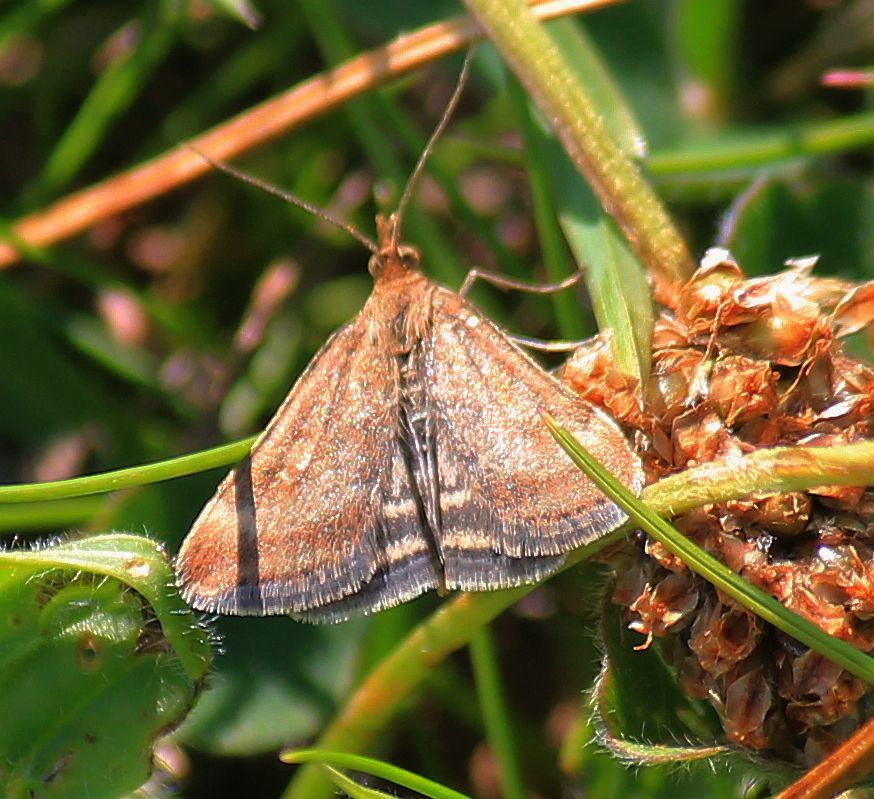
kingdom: Animalia
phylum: Arthropoda
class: Insecta
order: Lepidoptera
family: Crambidae
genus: Pyrausta
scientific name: Pyrausta despicata
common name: Straw-barred pearl
